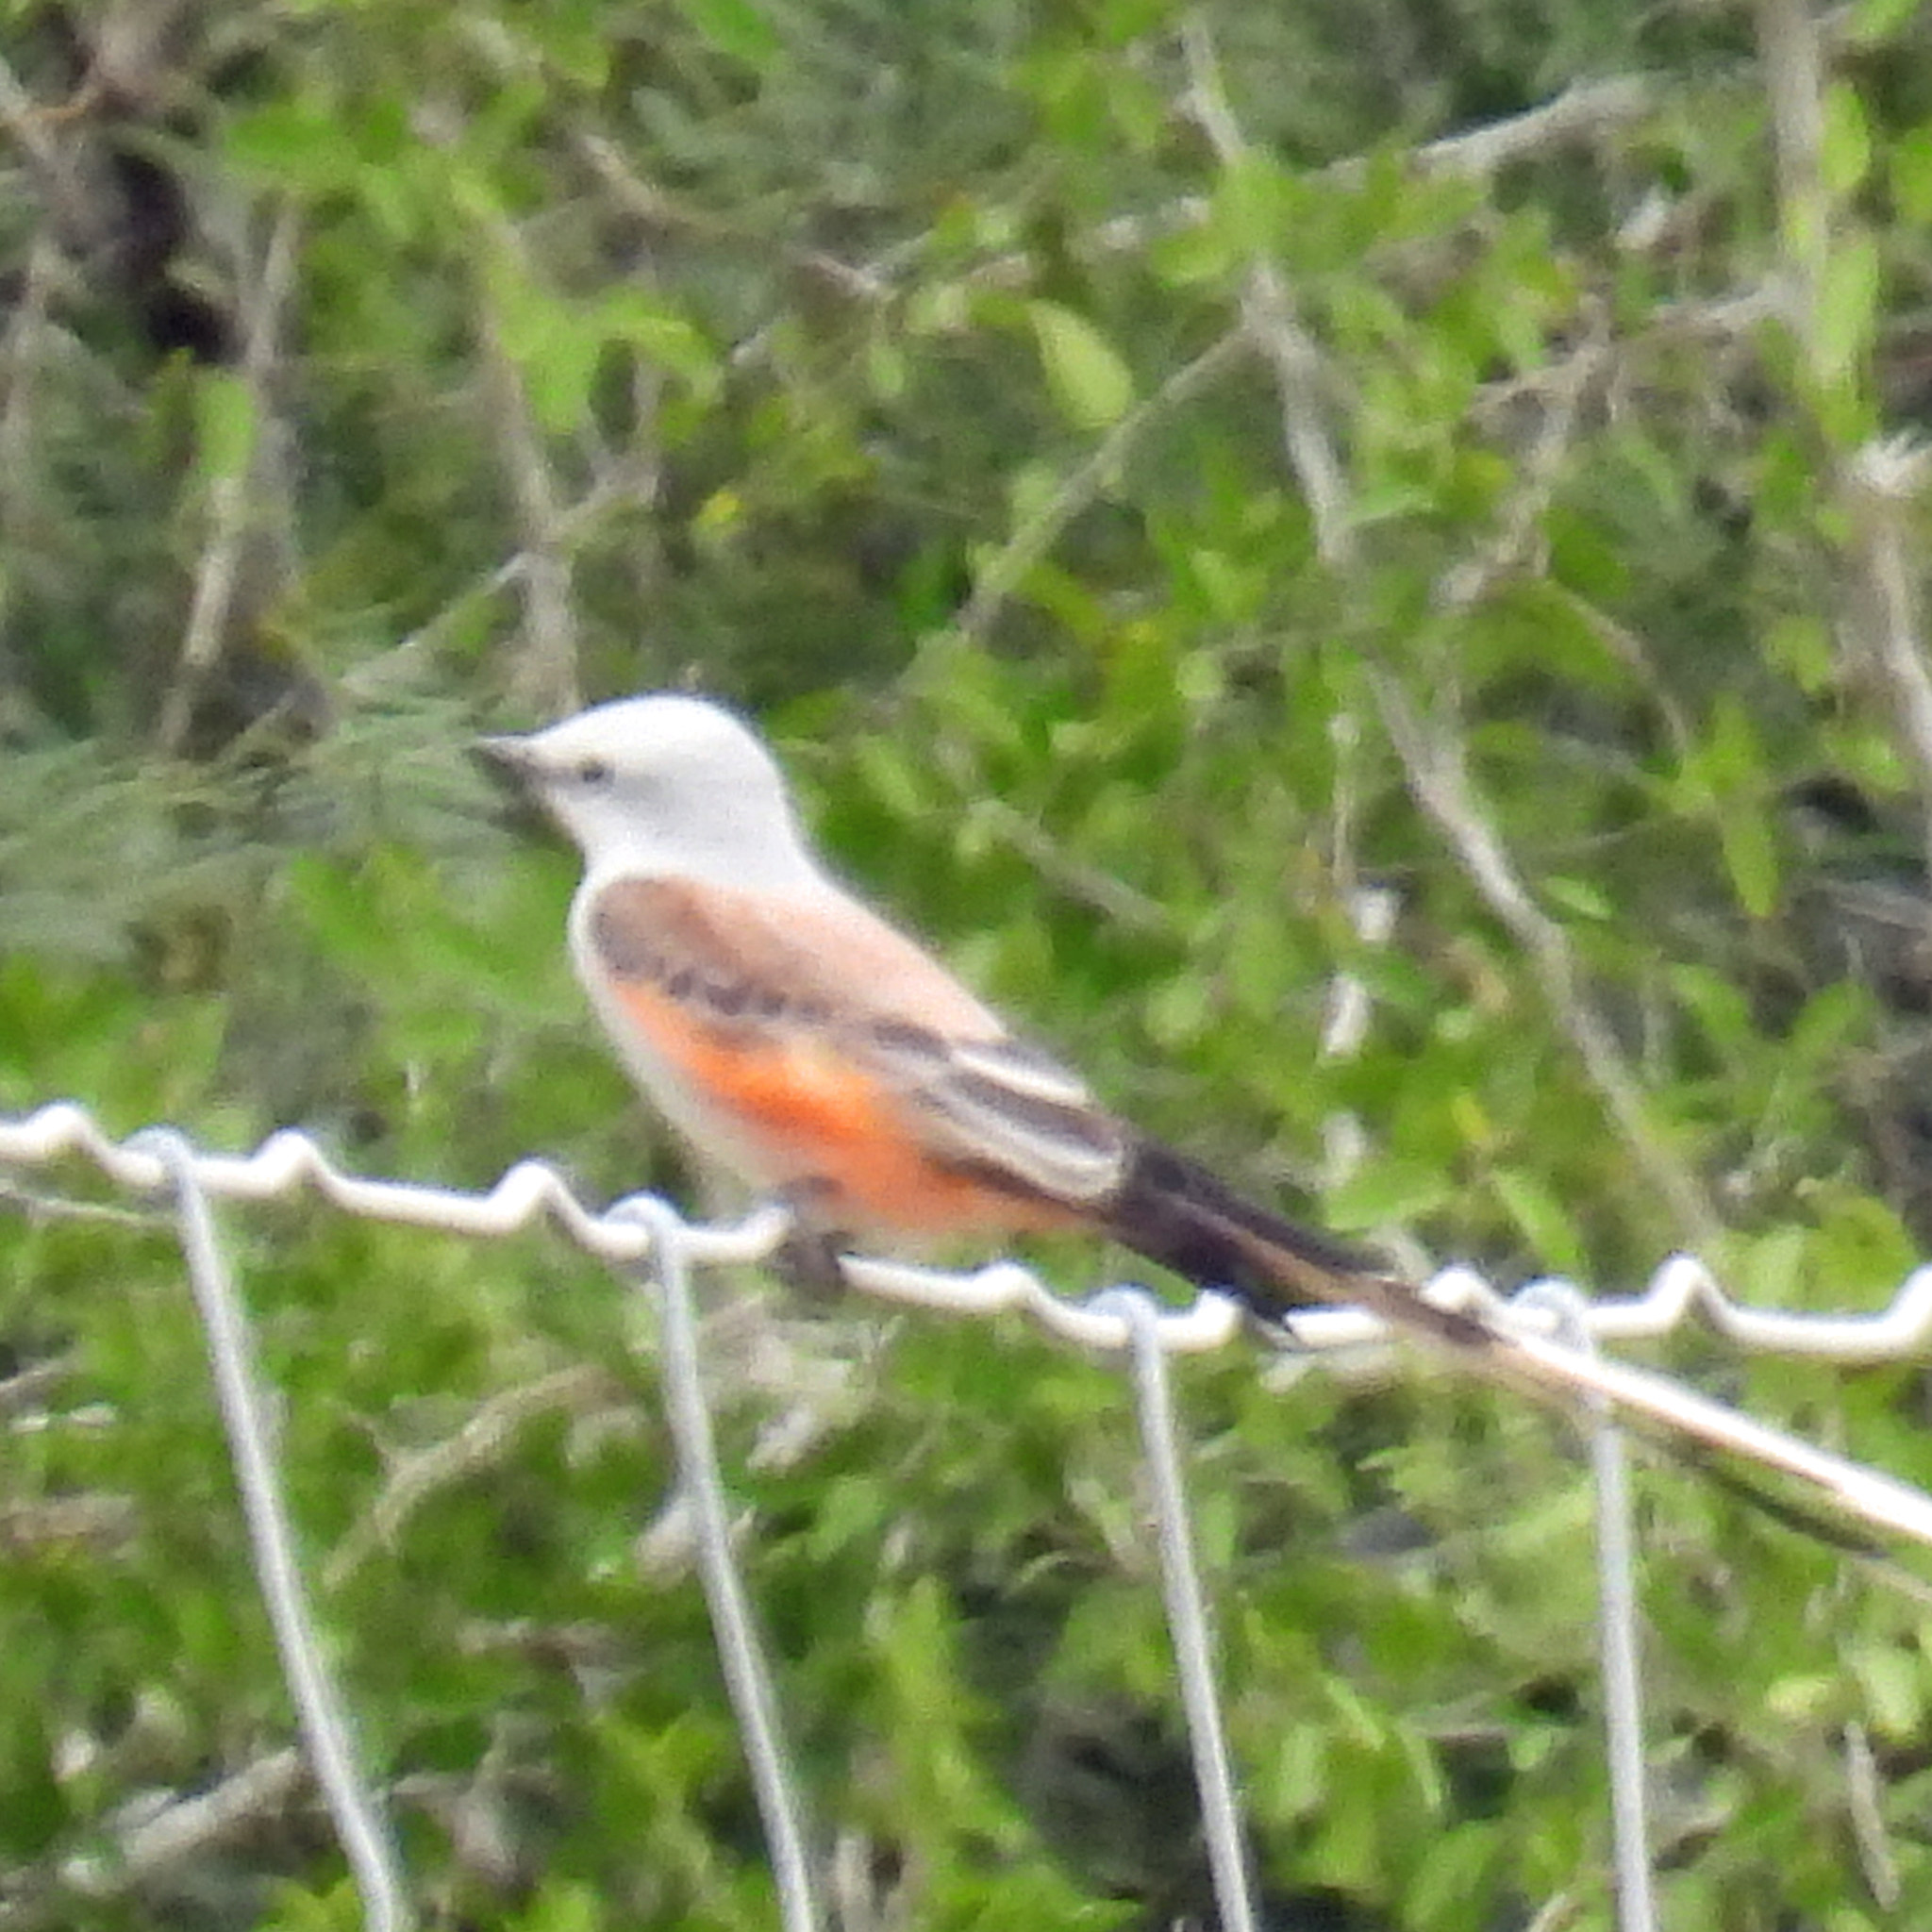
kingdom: Animalia
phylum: Chordata
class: Aves
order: Passeriformes
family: Tyrannidae
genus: Tyrannus
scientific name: Tyrannus forficatus
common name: Scissor-tailed flycatcher
